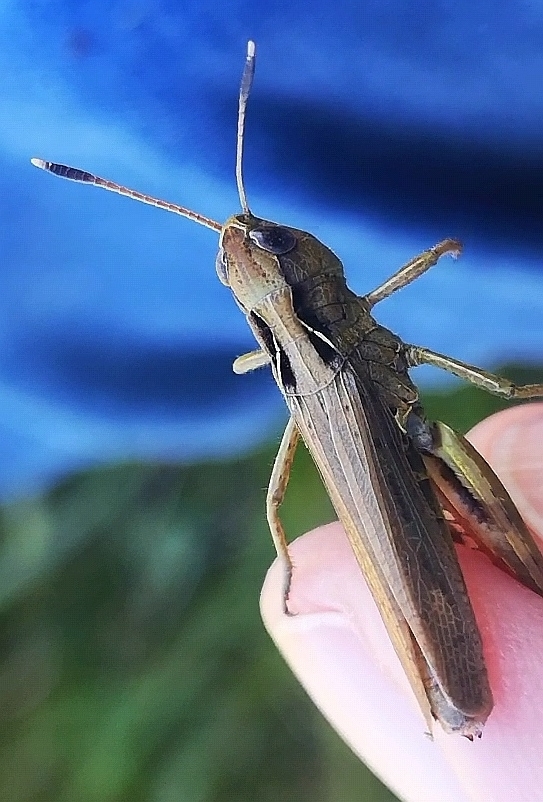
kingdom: Animalia
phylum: Arthropoda
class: Insecta
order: Orthoptera
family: Acrididae
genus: Gomphocerippus
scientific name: Gomphocerippus rufus
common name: Rufous grasshopper
